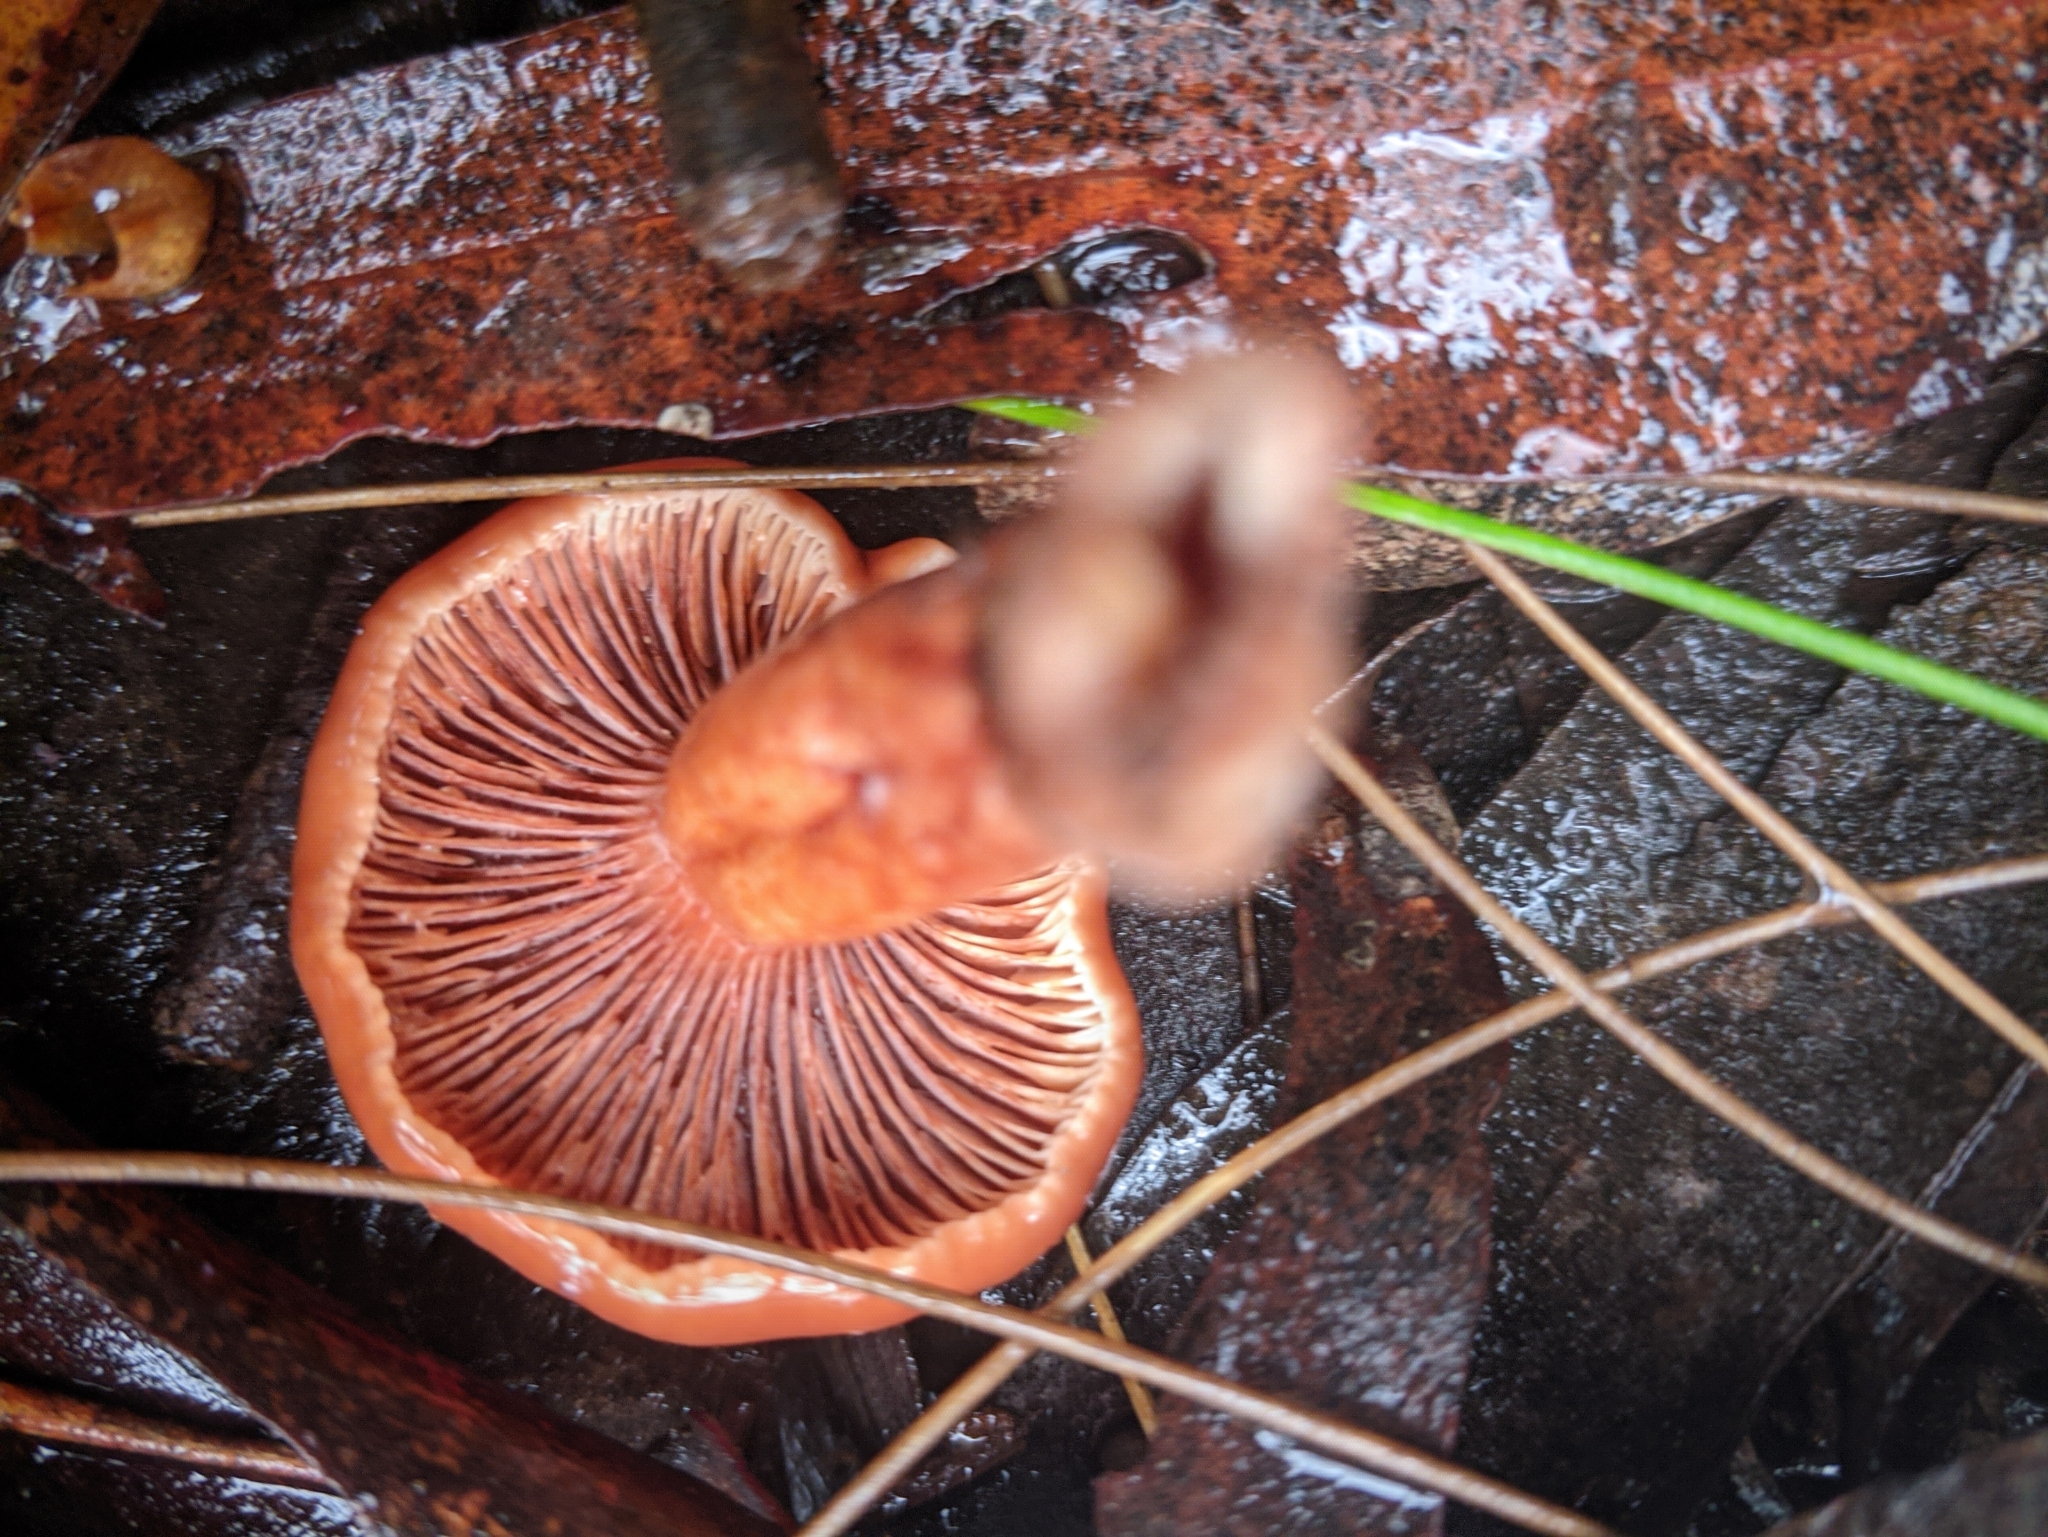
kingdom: Fungi
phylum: Basidiomycota
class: Agaricomycetes
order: Russulales
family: Russulaceae
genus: Lactarius
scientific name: Lactarius eucalypti
